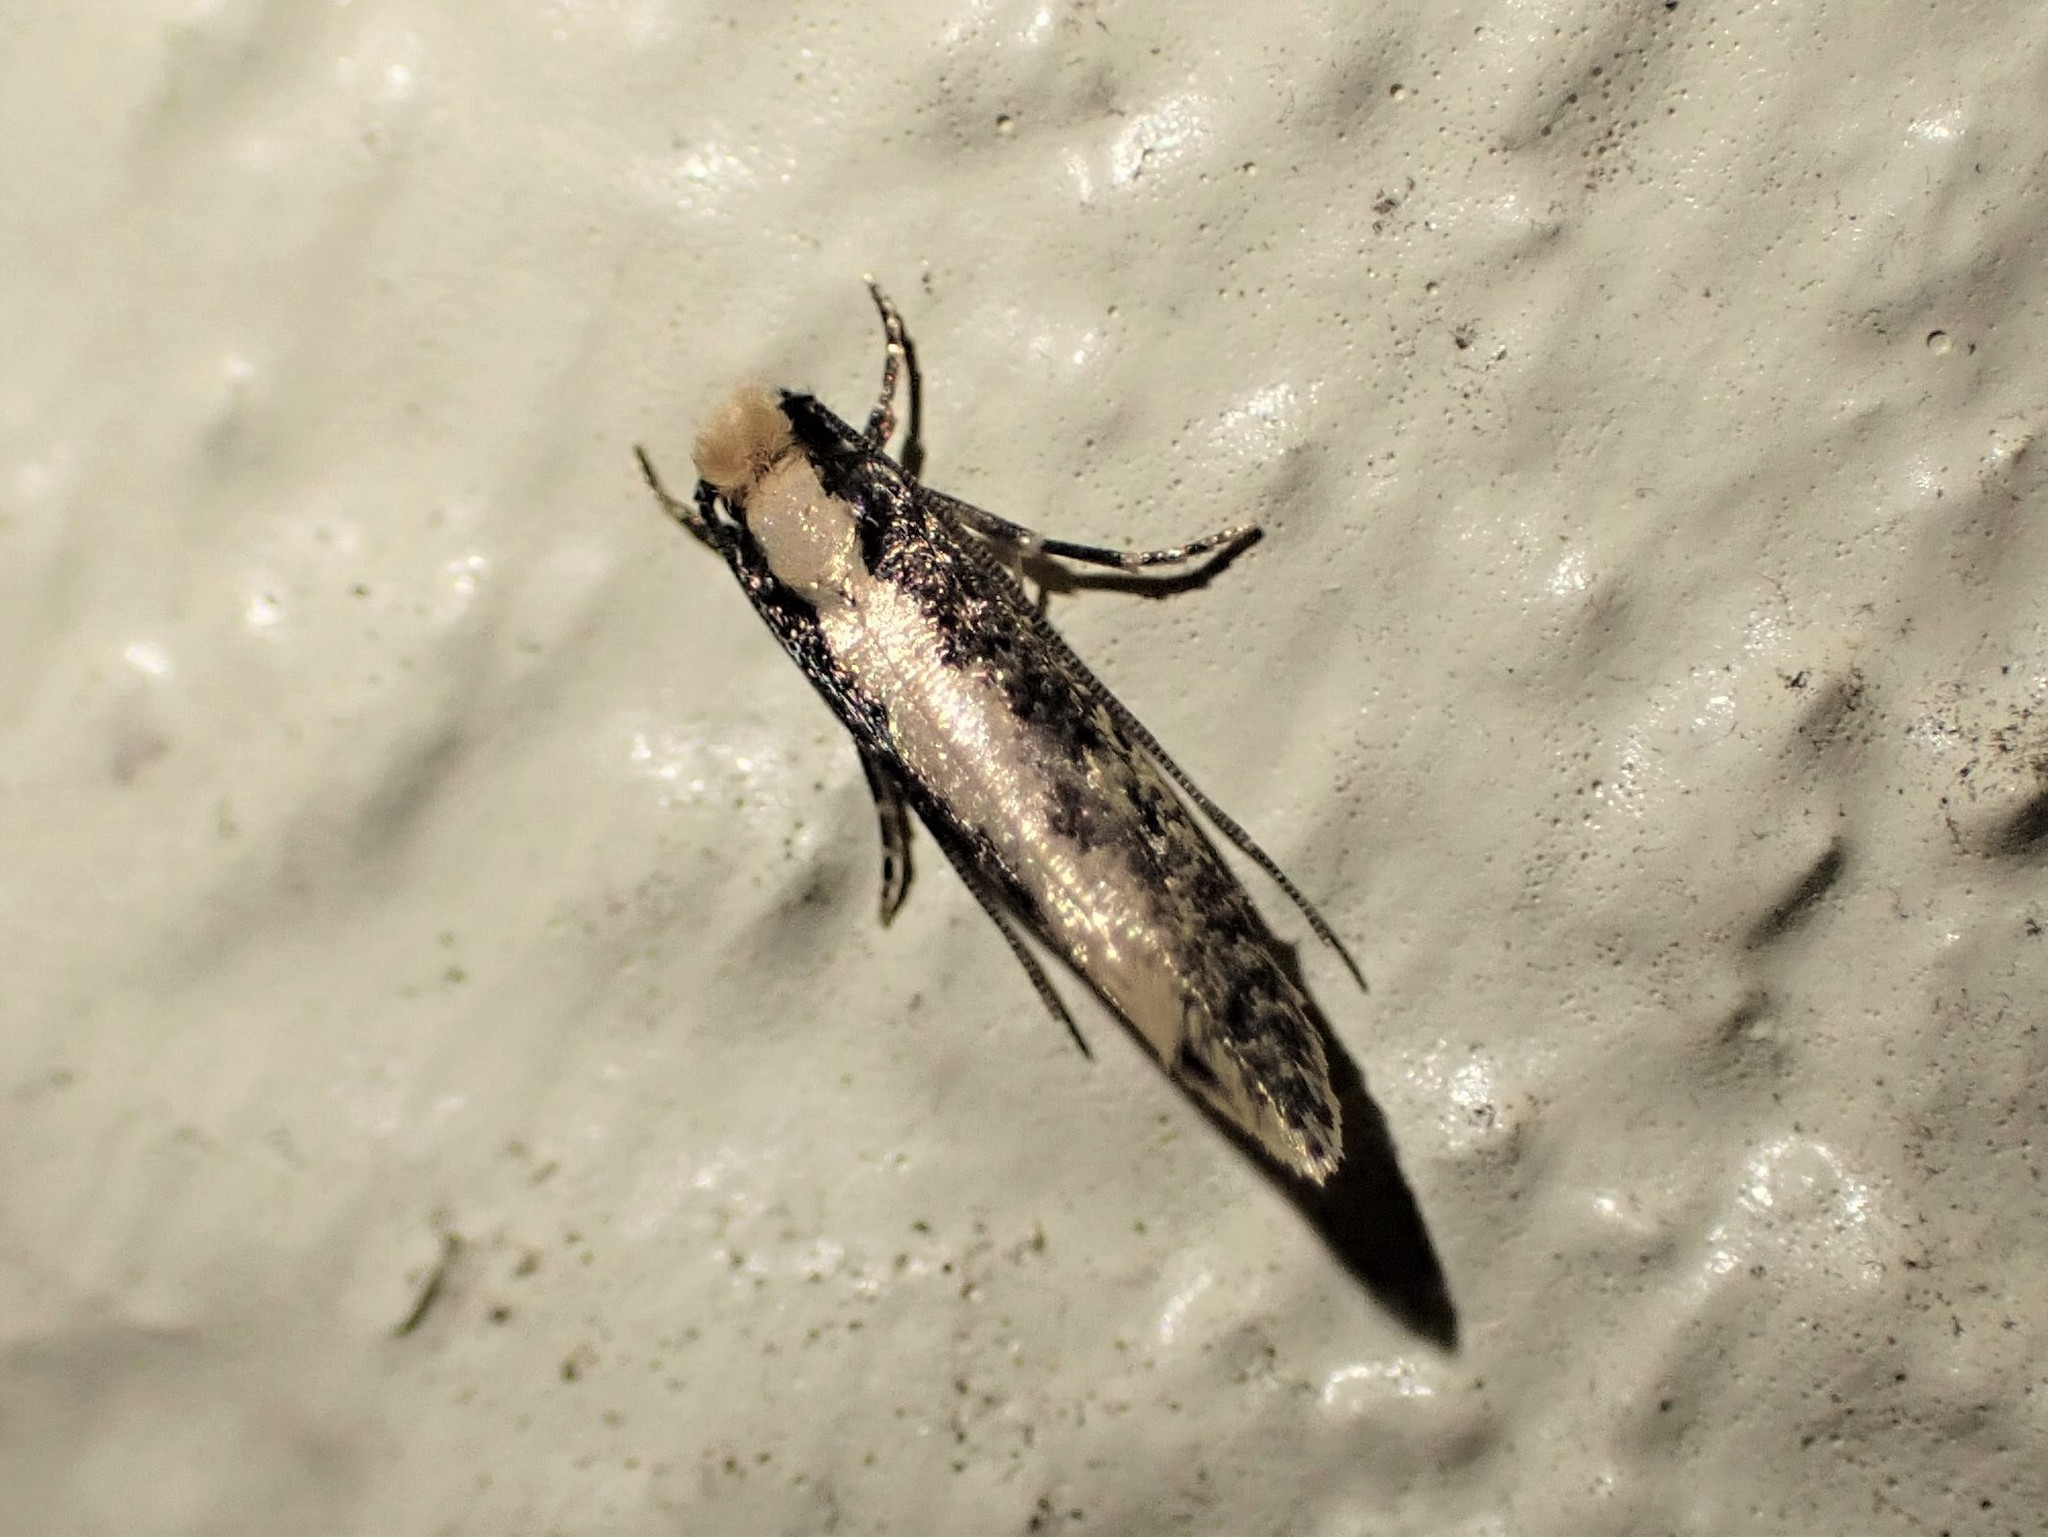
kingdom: Animalia
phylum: Arthropoda
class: Insecta
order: Lepidoptera
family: Tineidae
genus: Monopis
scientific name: Monopis crocicapitella
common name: Moth
